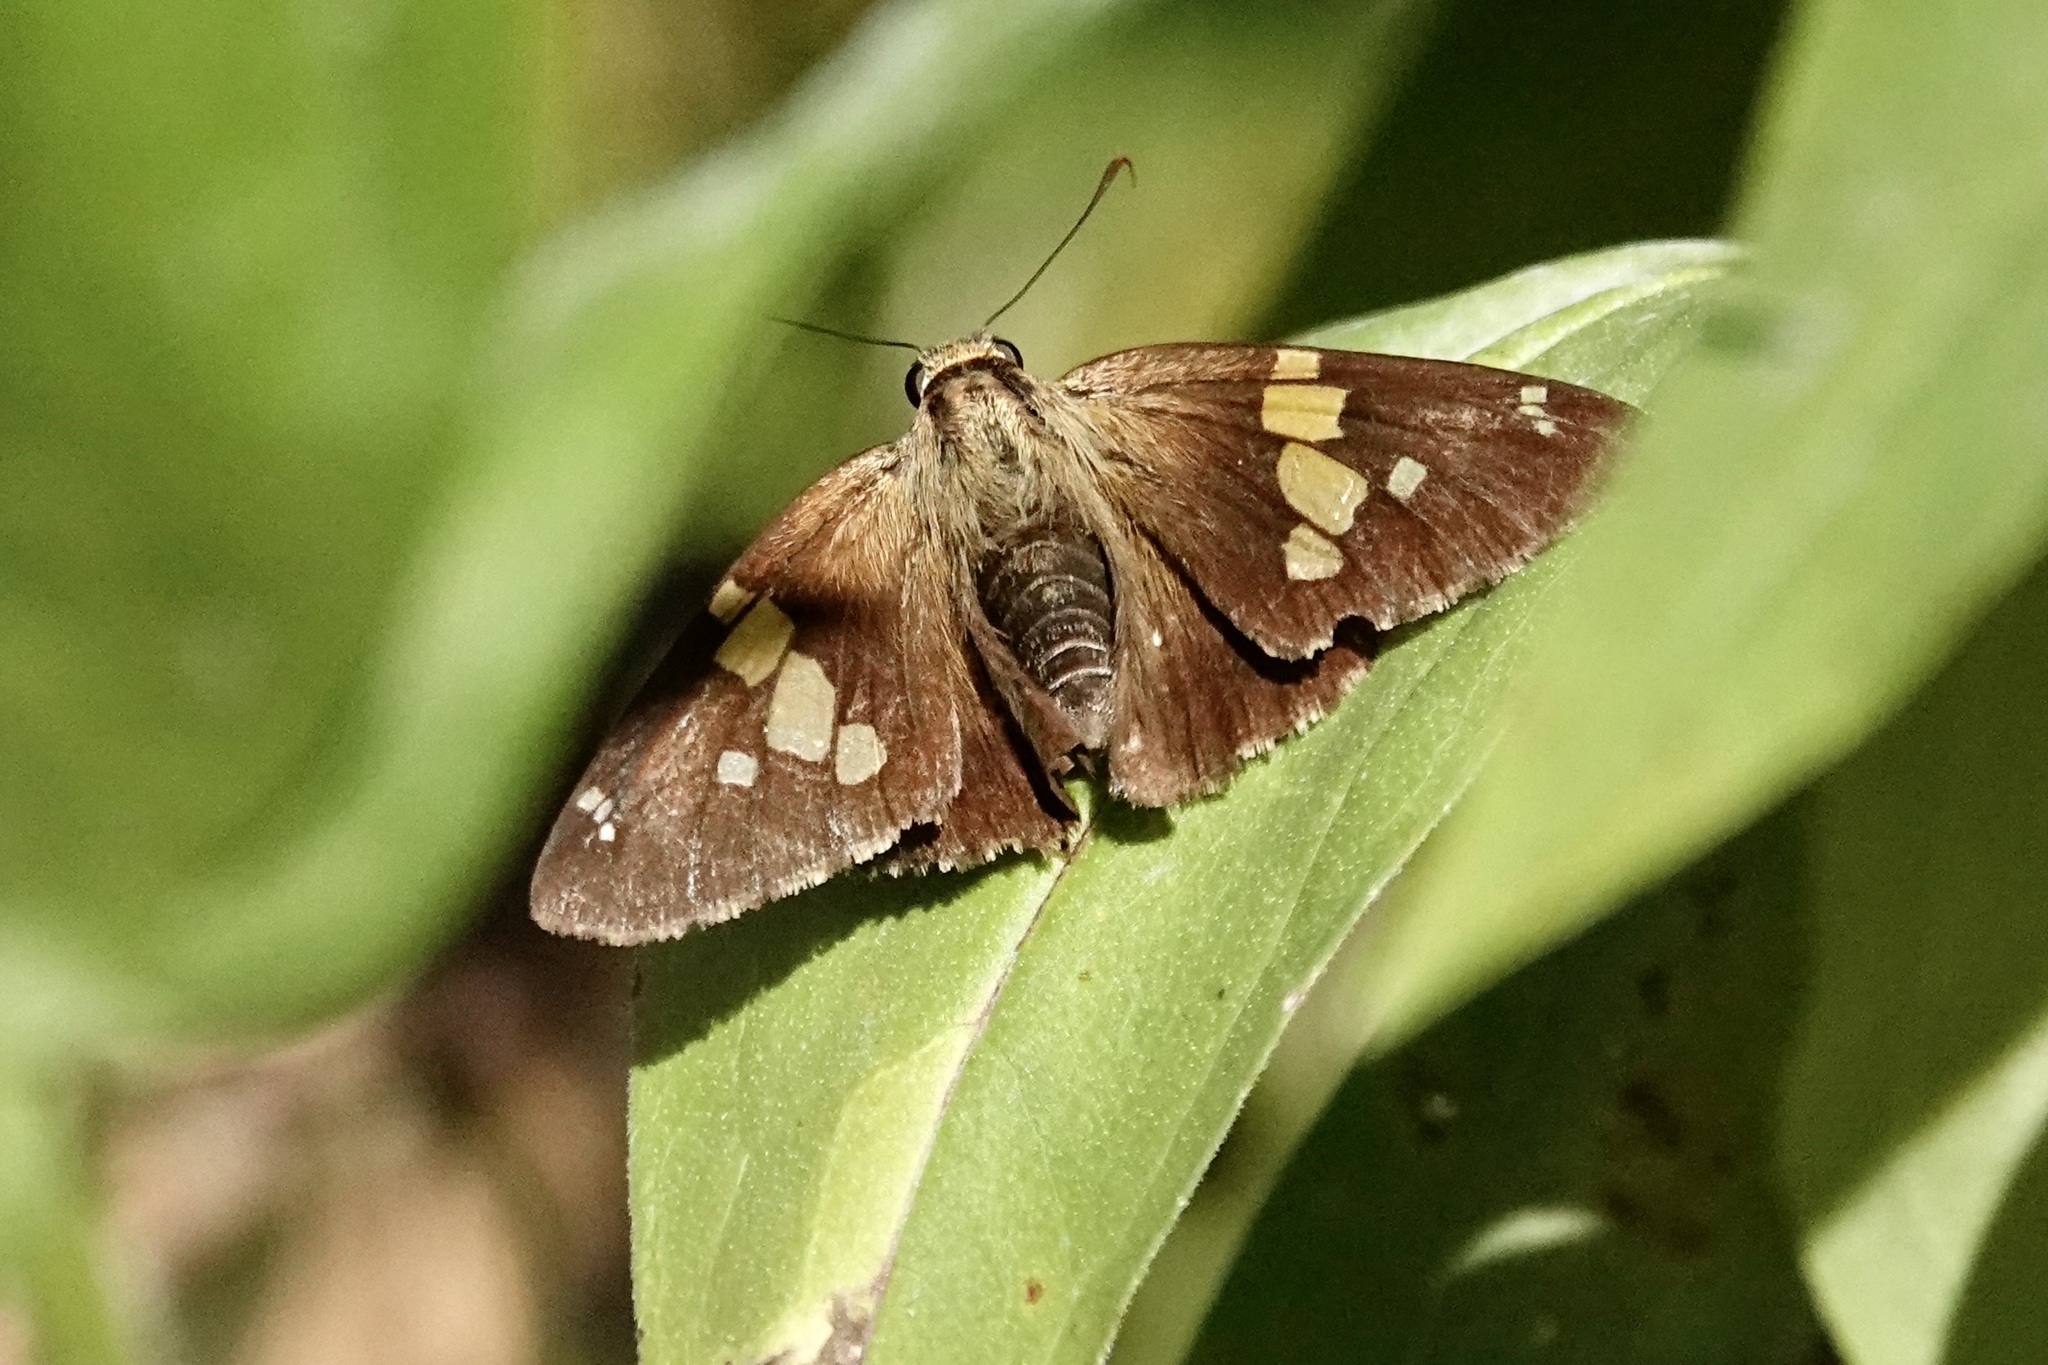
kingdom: Animalia
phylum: Arthropoda
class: Insecta
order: Lepidoptera
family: Hesperiidae
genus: Epargyreus
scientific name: Epargyreus clarus
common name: Silver-spotted skipper
